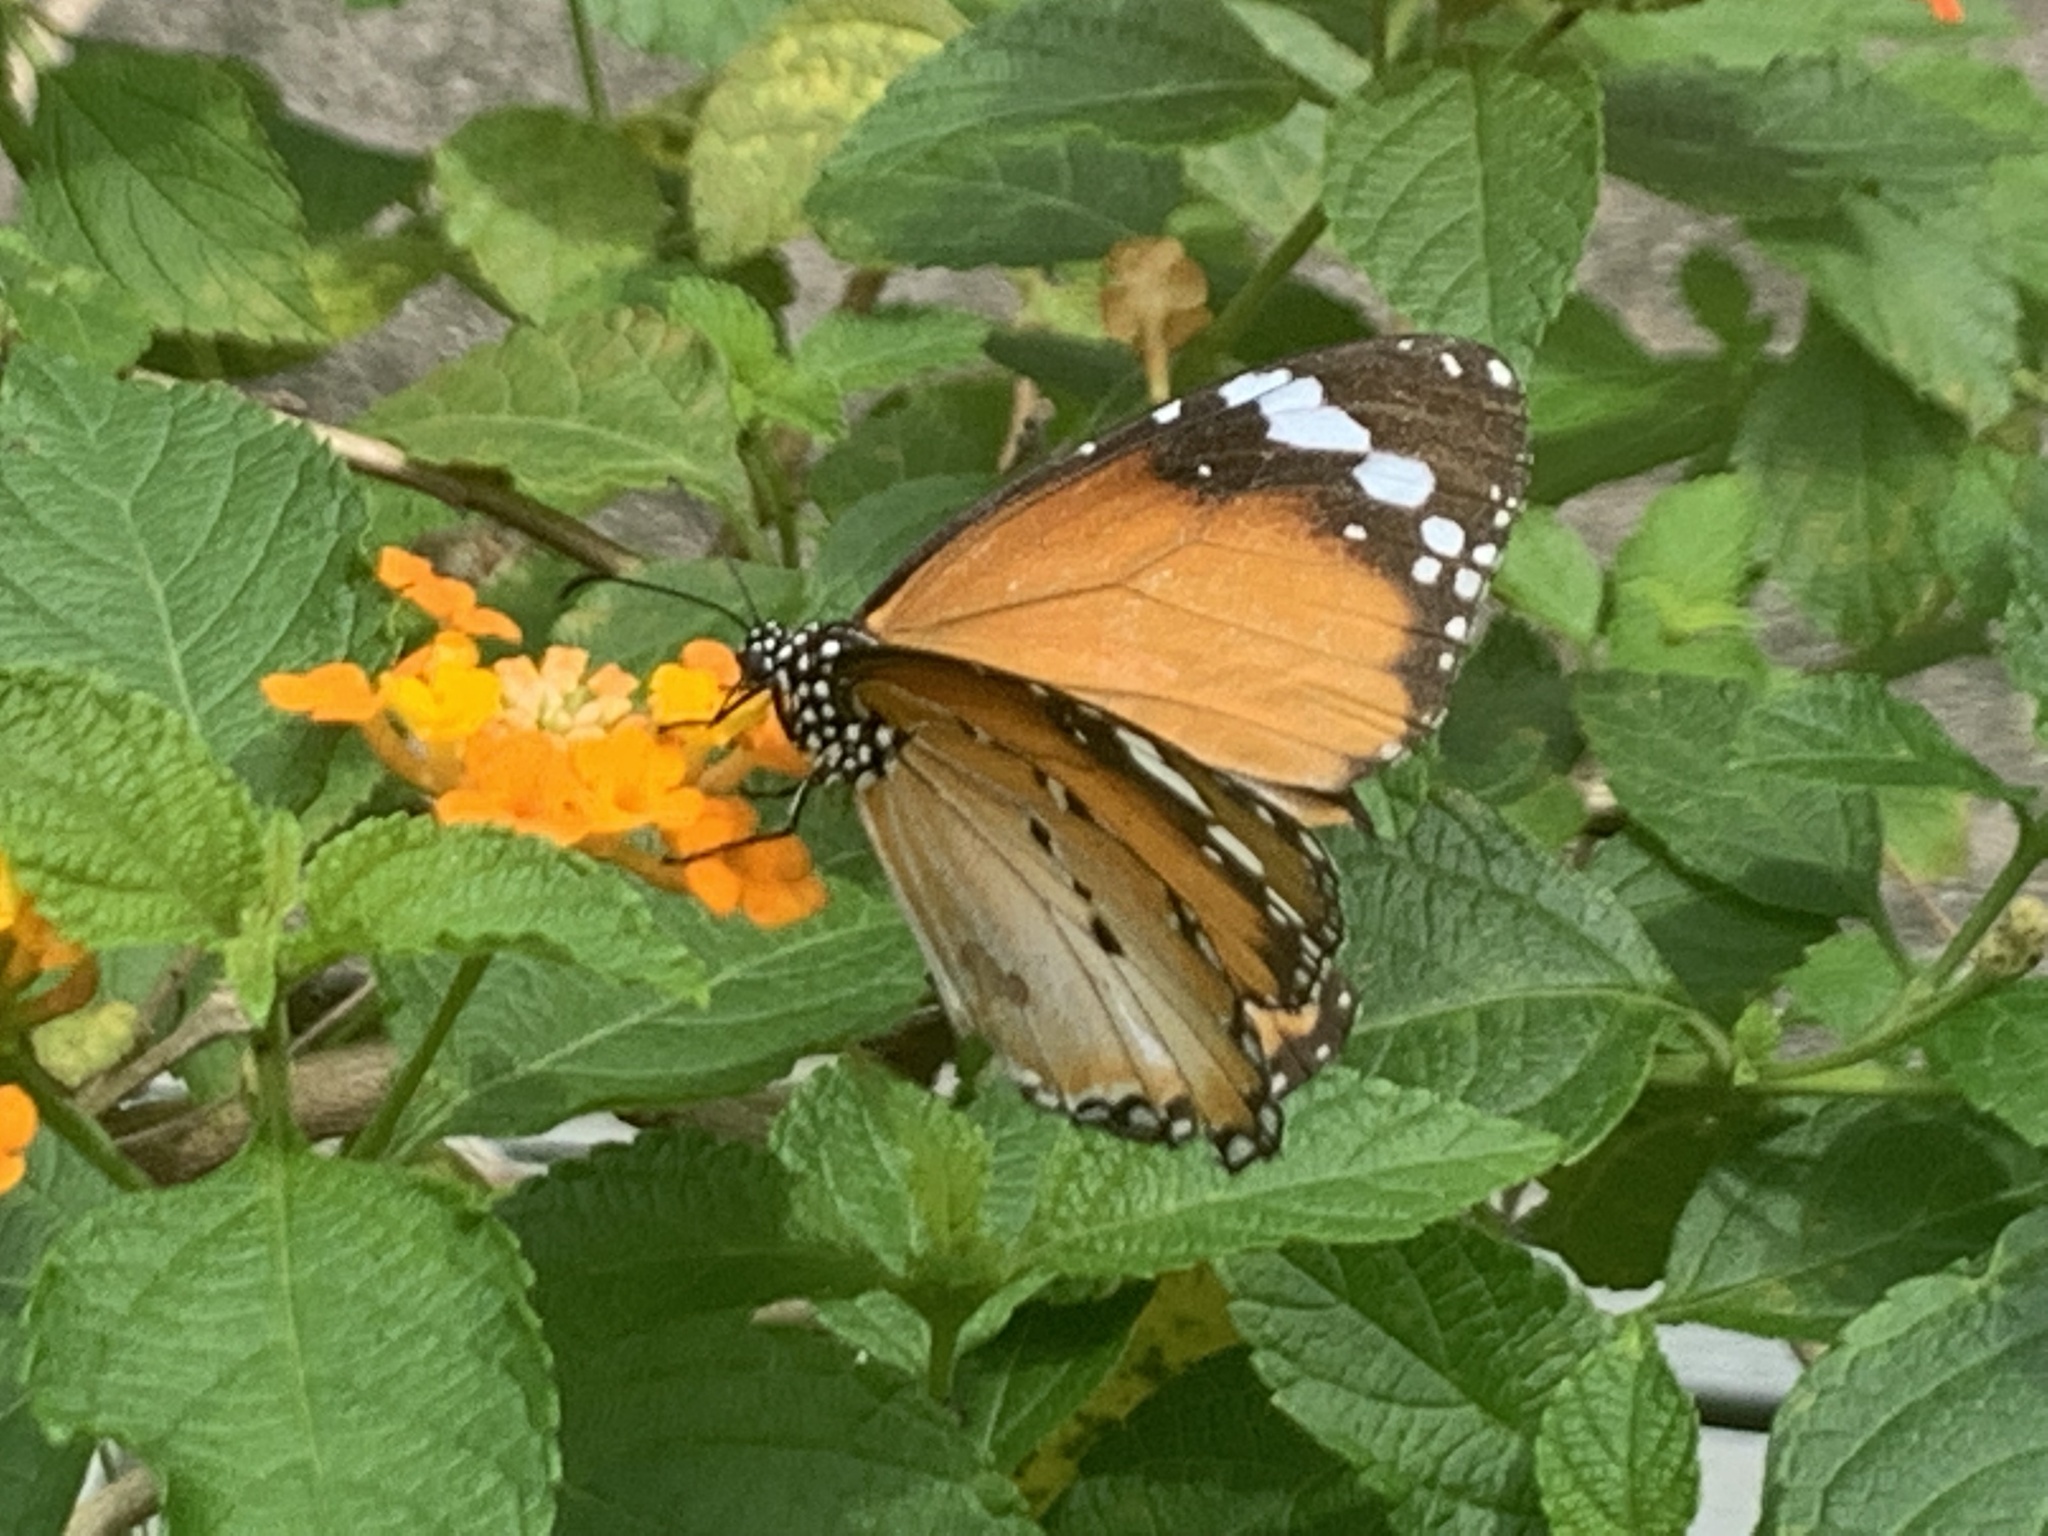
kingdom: Animalia
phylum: Arthropoda
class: Insecta
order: Lepidoptera
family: Nymphalidae
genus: Danaus
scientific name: Danaus chrysippus
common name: Plain tiger
